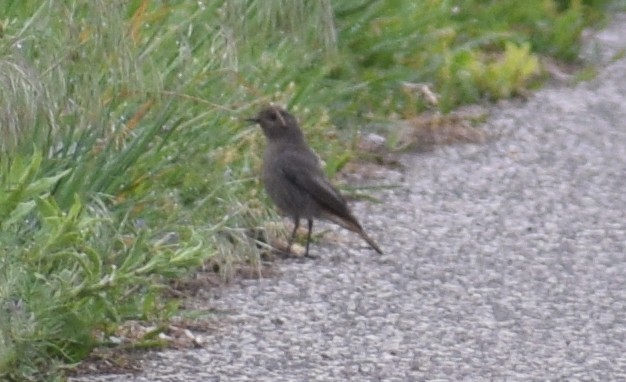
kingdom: Animalia
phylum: Chordata
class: Aves
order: Passeriformes
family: Muscicapidae
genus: Phoenicurus
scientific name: Phoenicurus ochruros
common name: Black redstart
